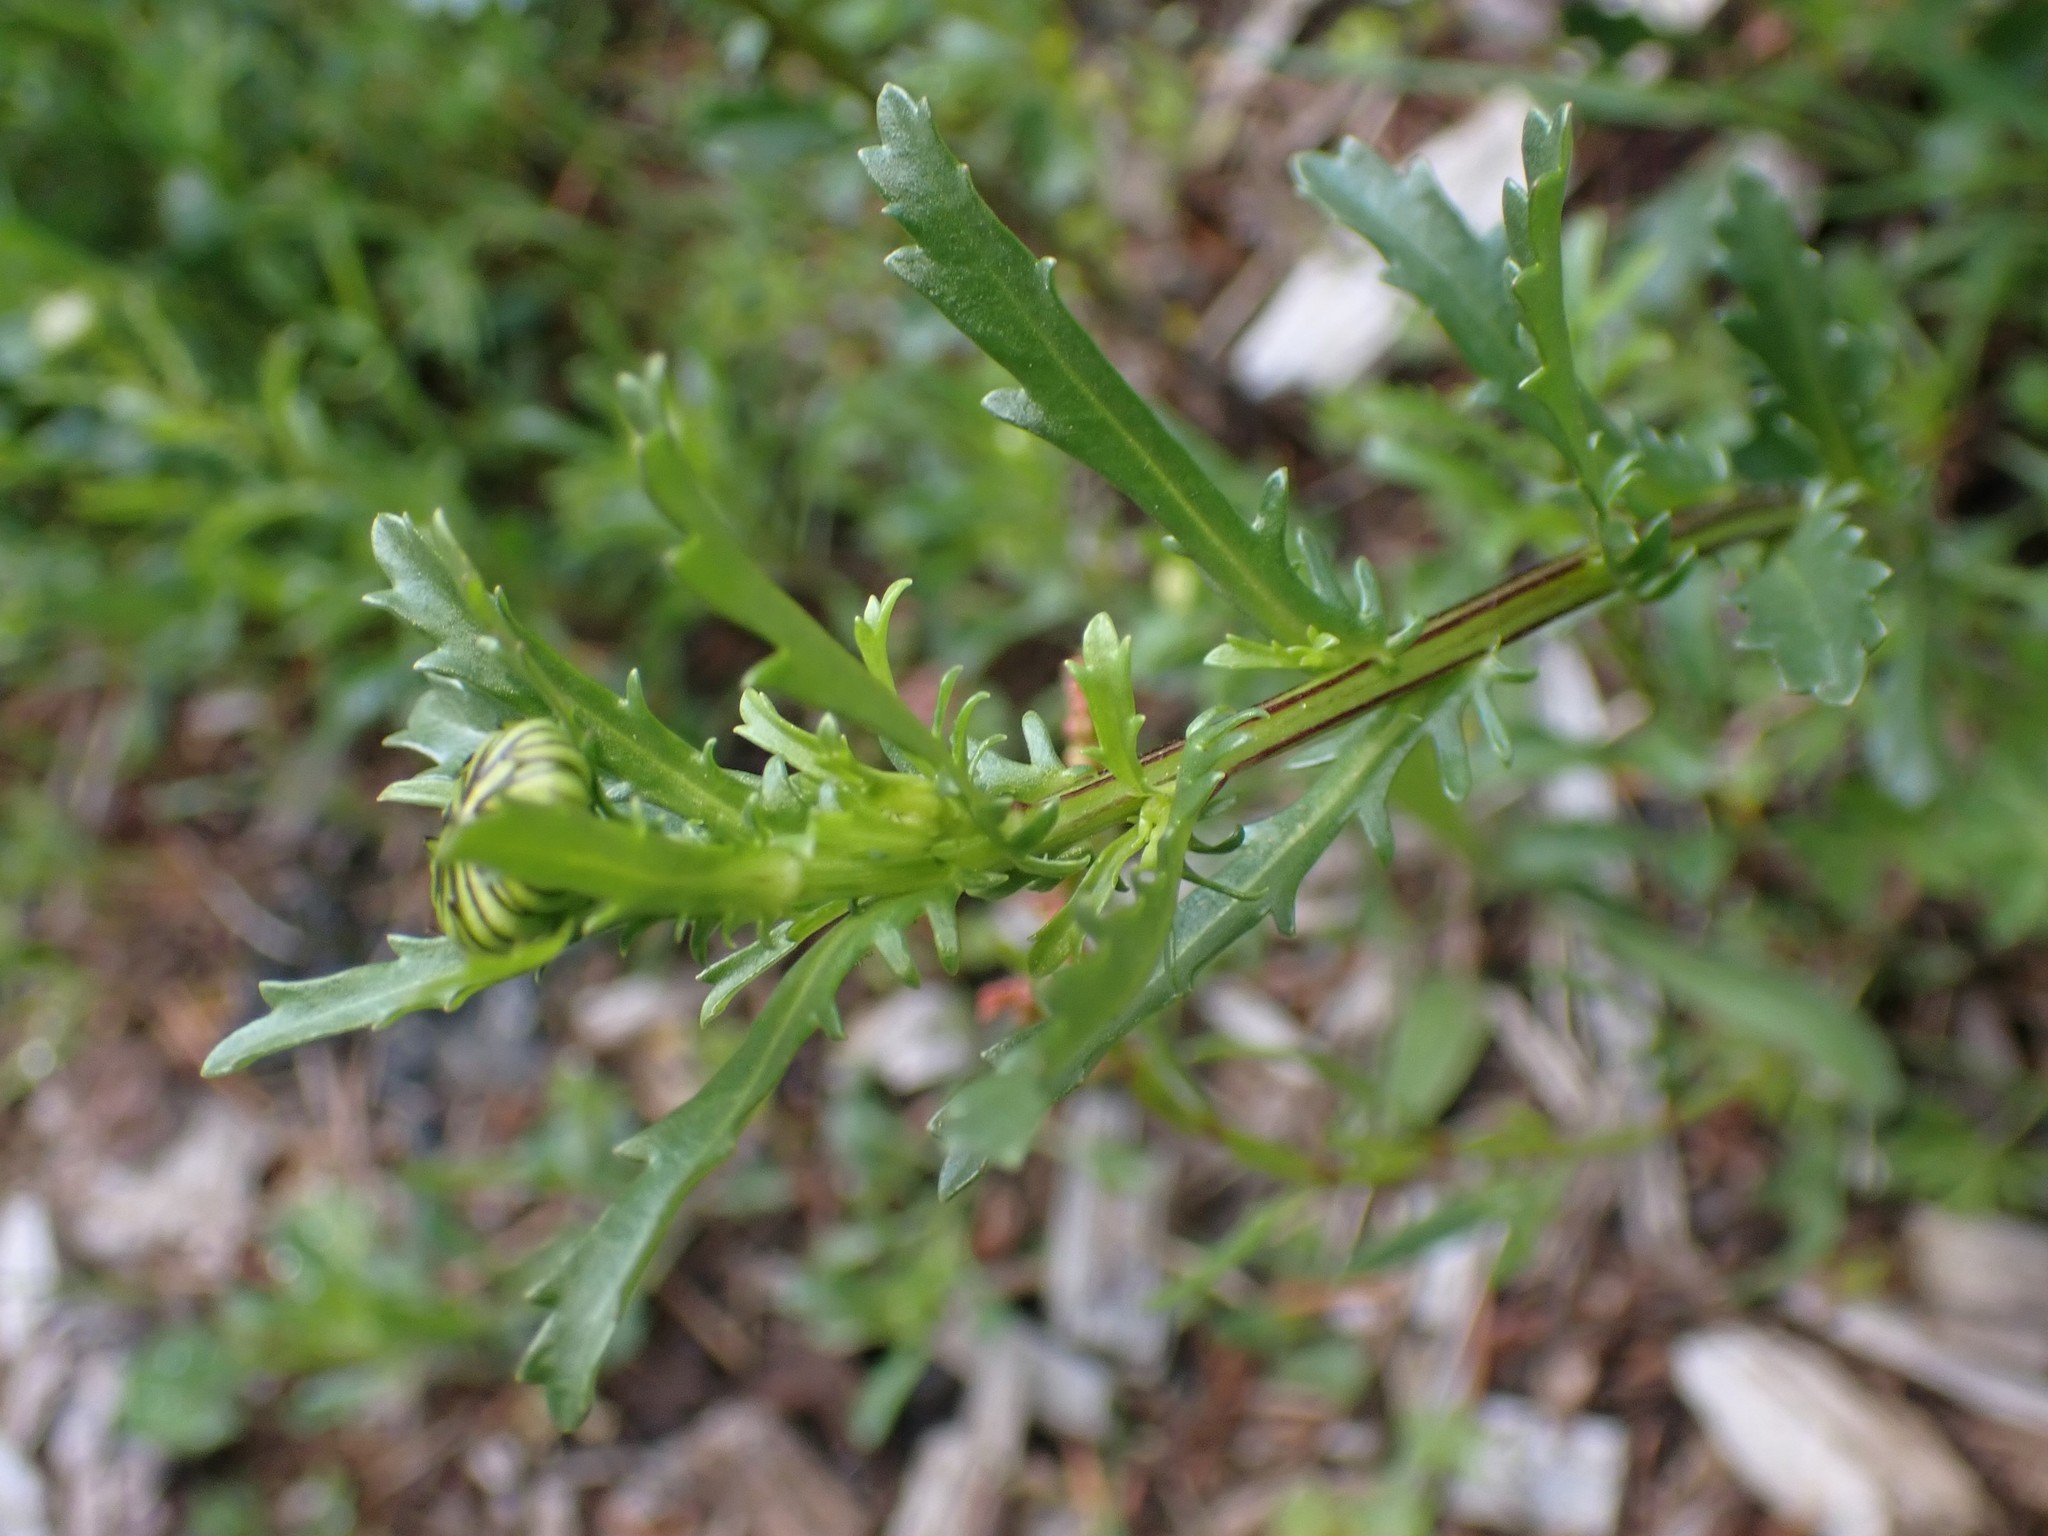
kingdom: Plantae
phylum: Tracheophyta
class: Magnoliopsida
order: Asterales
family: Asteraceae
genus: Leucanthemum
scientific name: Leucanthemum vulgare
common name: Oxeye daisy
